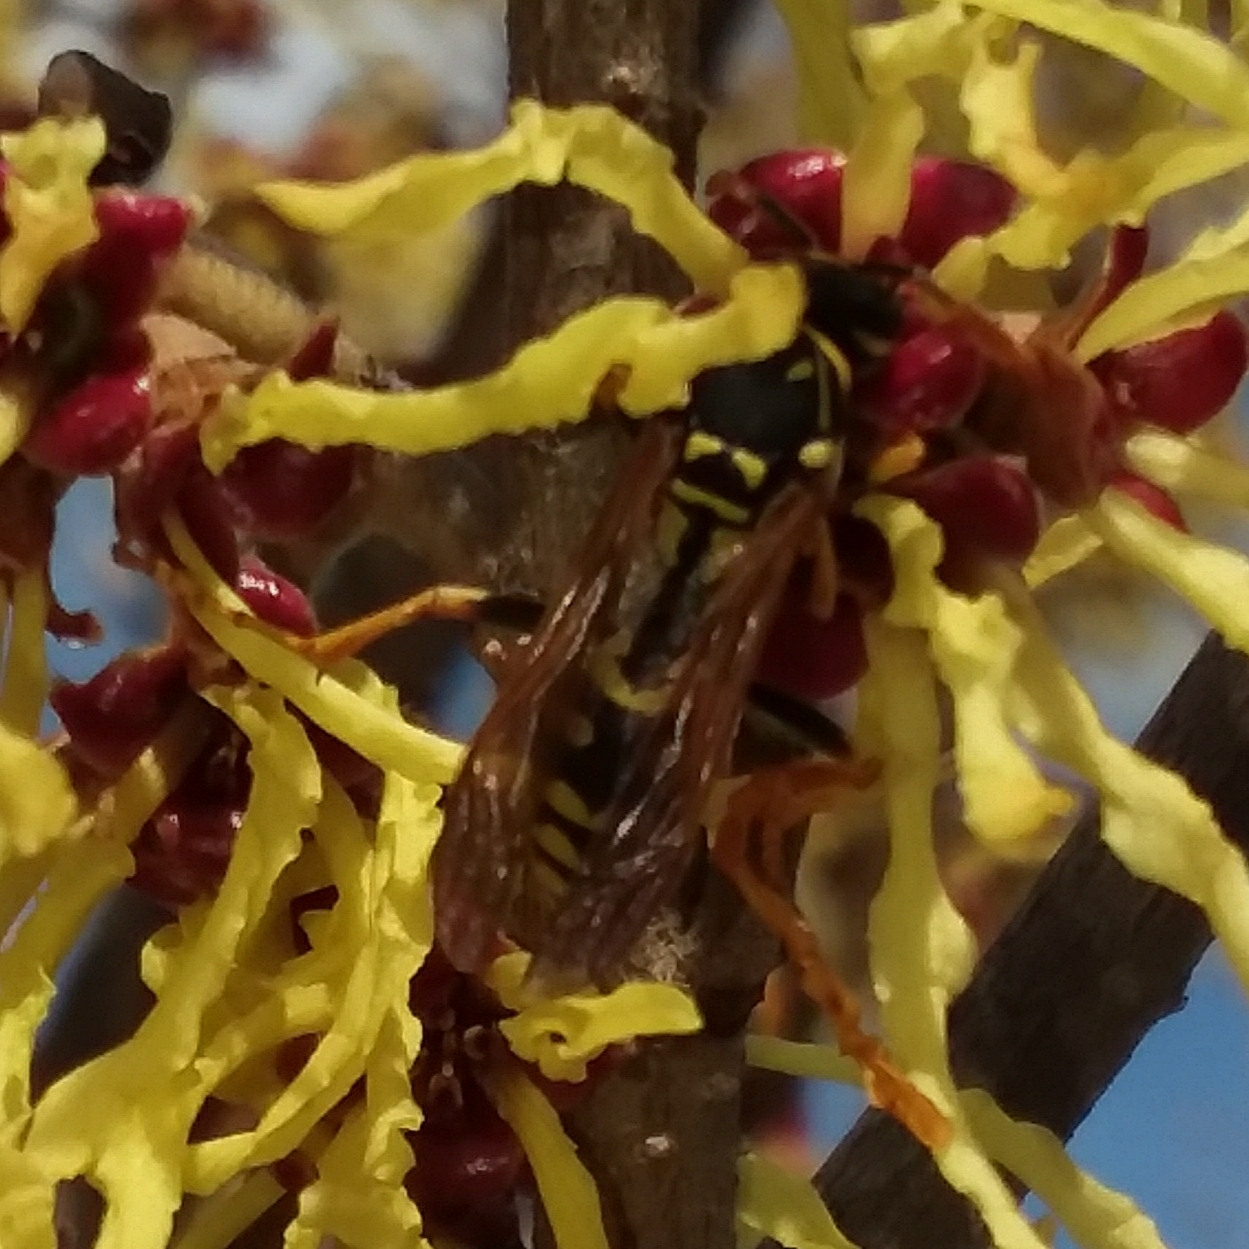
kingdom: Animalia
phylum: Arthropoda
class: Insecta
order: Hymenoptera
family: Eumenidae
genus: Polistes
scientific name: Polistes dominula
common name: Paper wasp
